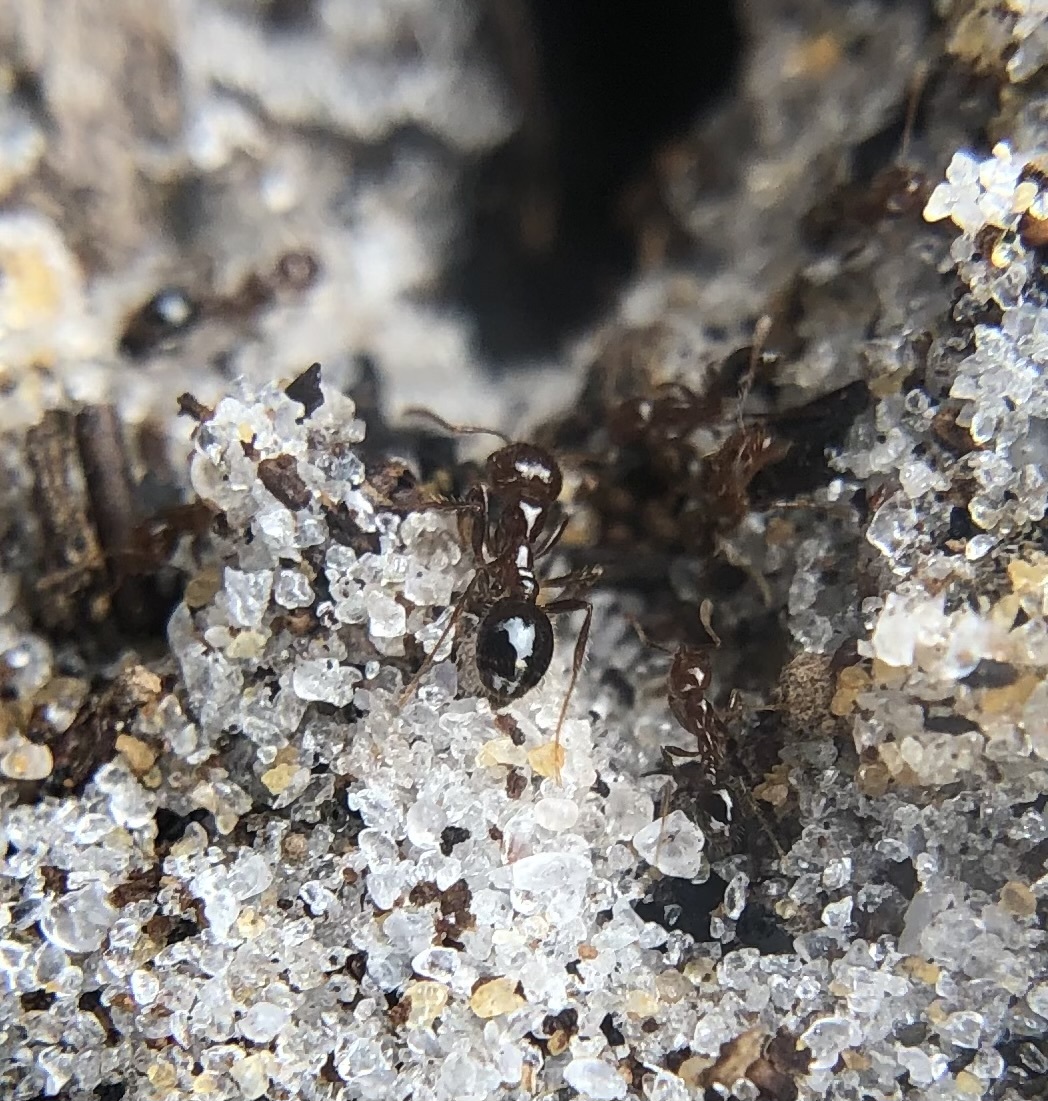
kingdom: Animalia
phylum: Arthropoda
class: Insecta
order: Hymenoptera
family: Formicidae
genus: Solenopsis
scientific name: Solenopsis invicta
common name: Red imported fire ant
